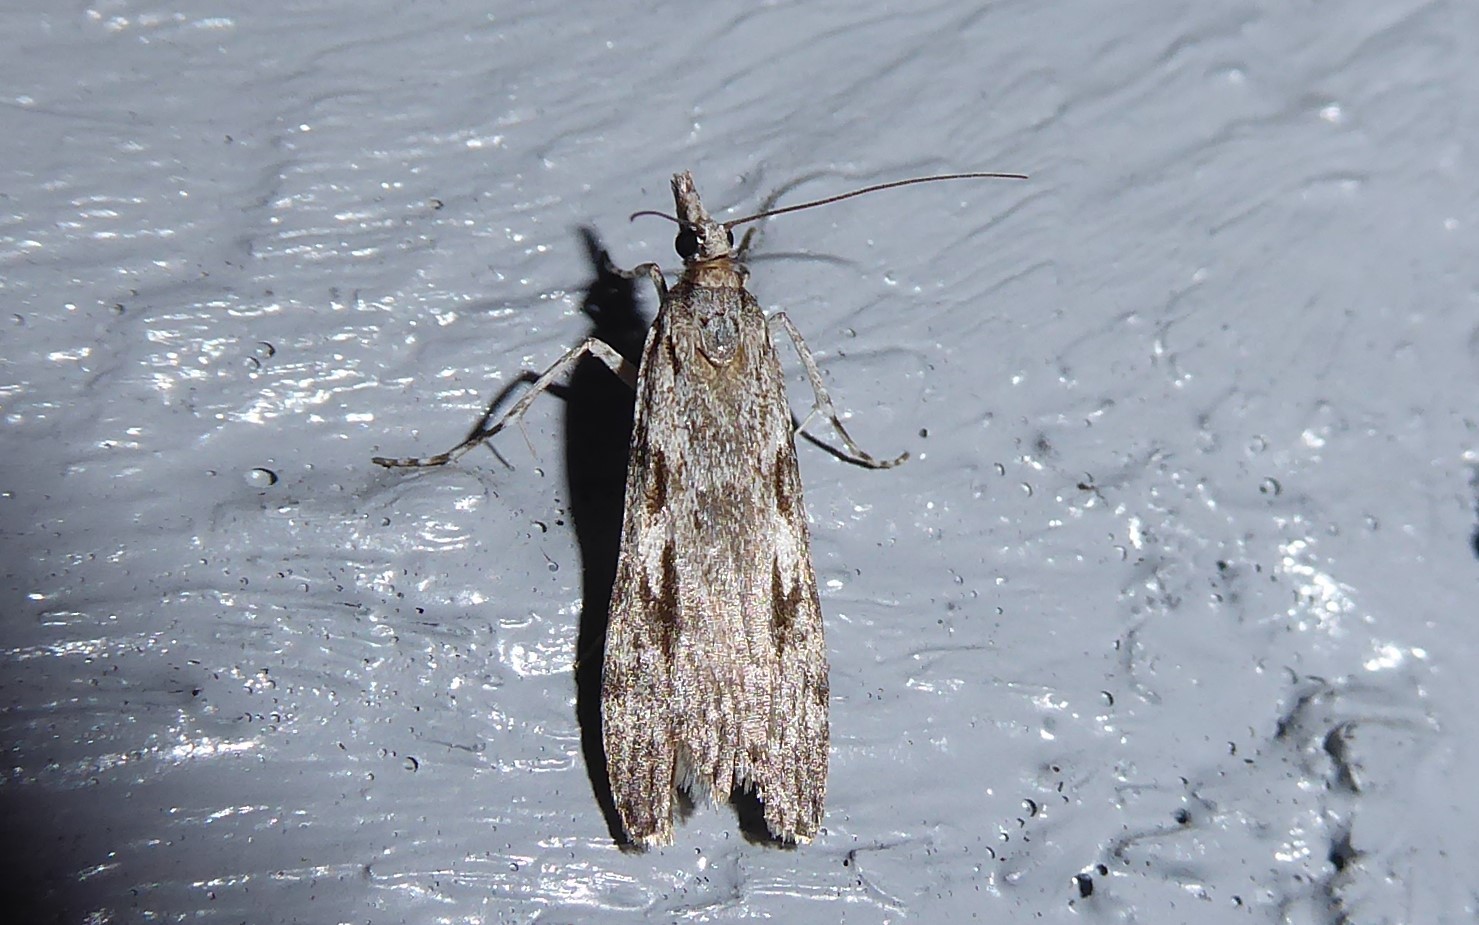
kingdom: Animalia
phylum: Arthropoda
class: Insecta
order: Lepidoptera
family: Crambidae
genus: Scoparia
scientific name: Scoparia halopis
